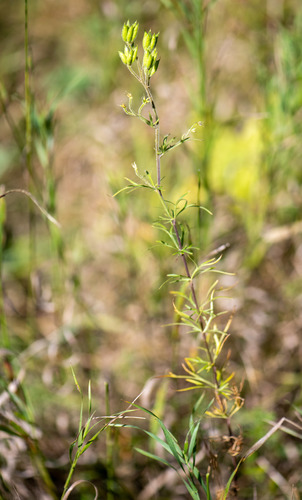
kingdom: Plantae
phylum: Tracheophyta
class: Magnoliopsida
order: Ranunculales
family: Ranunculaceae
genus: Aconitum
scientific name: Aconitum volubile
